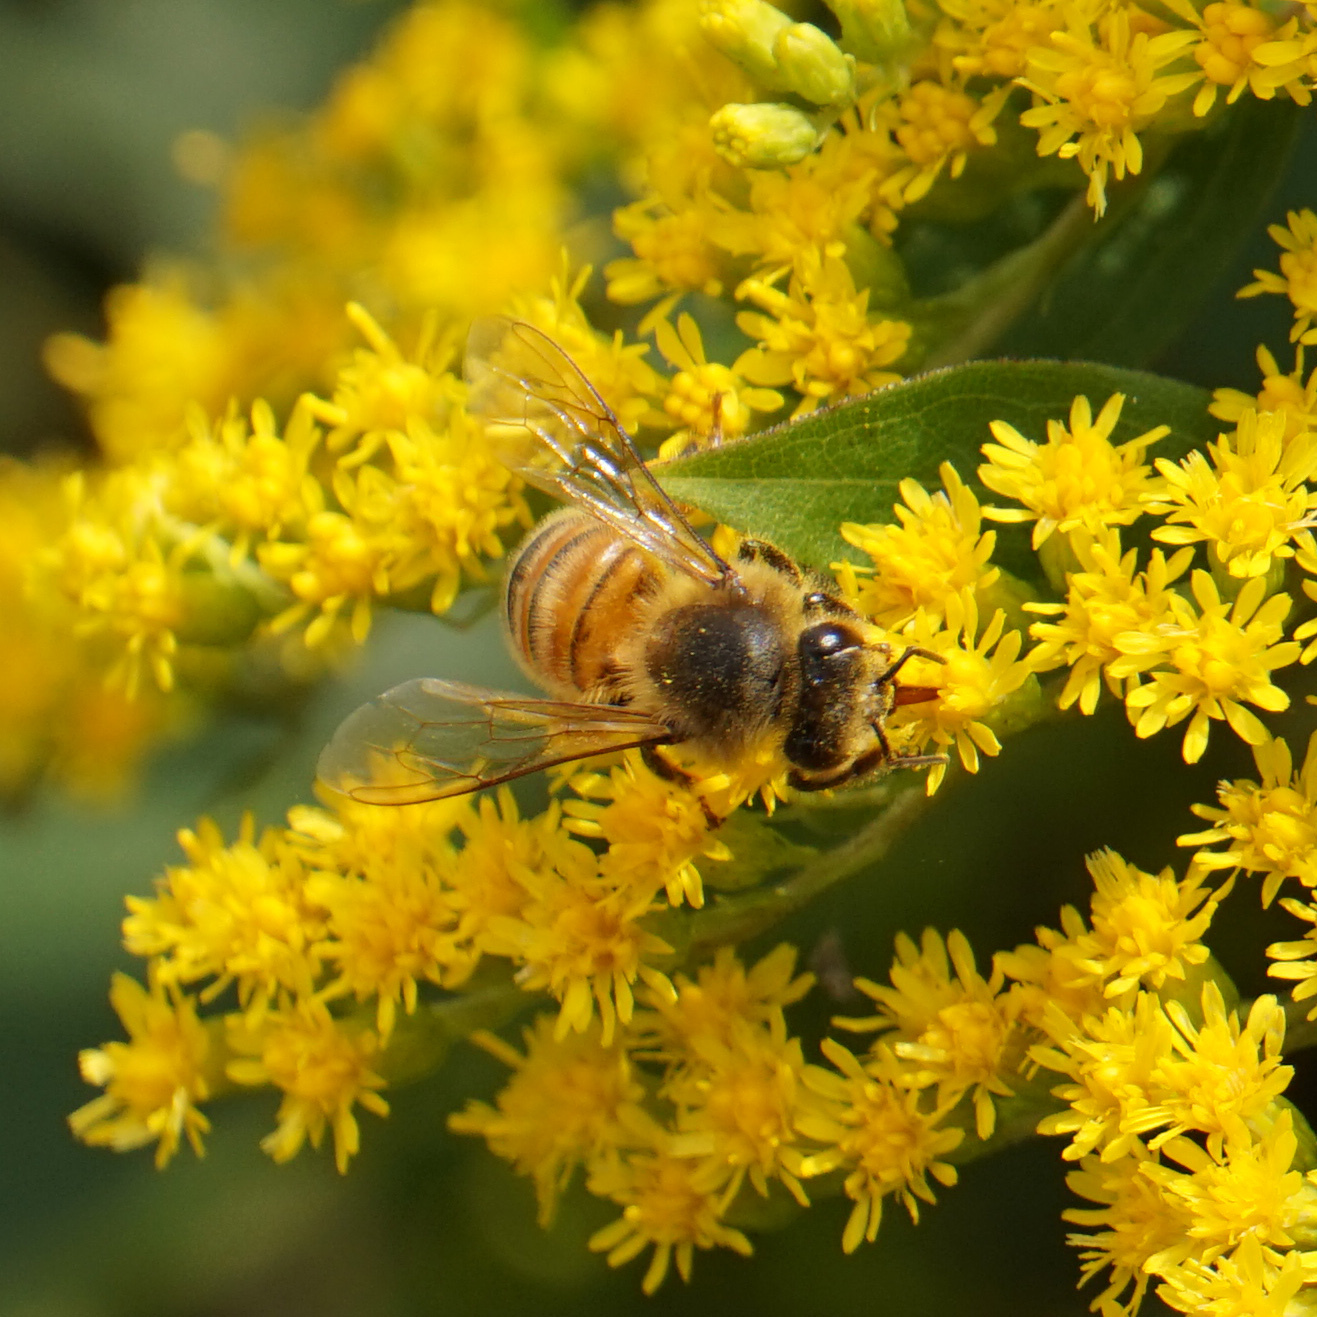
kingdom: Animalia
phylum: Arthropoda
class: Insecta
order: Hymenoptera
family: Apidae
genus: Apis
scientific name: Apis mellifera
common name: Honey bee
